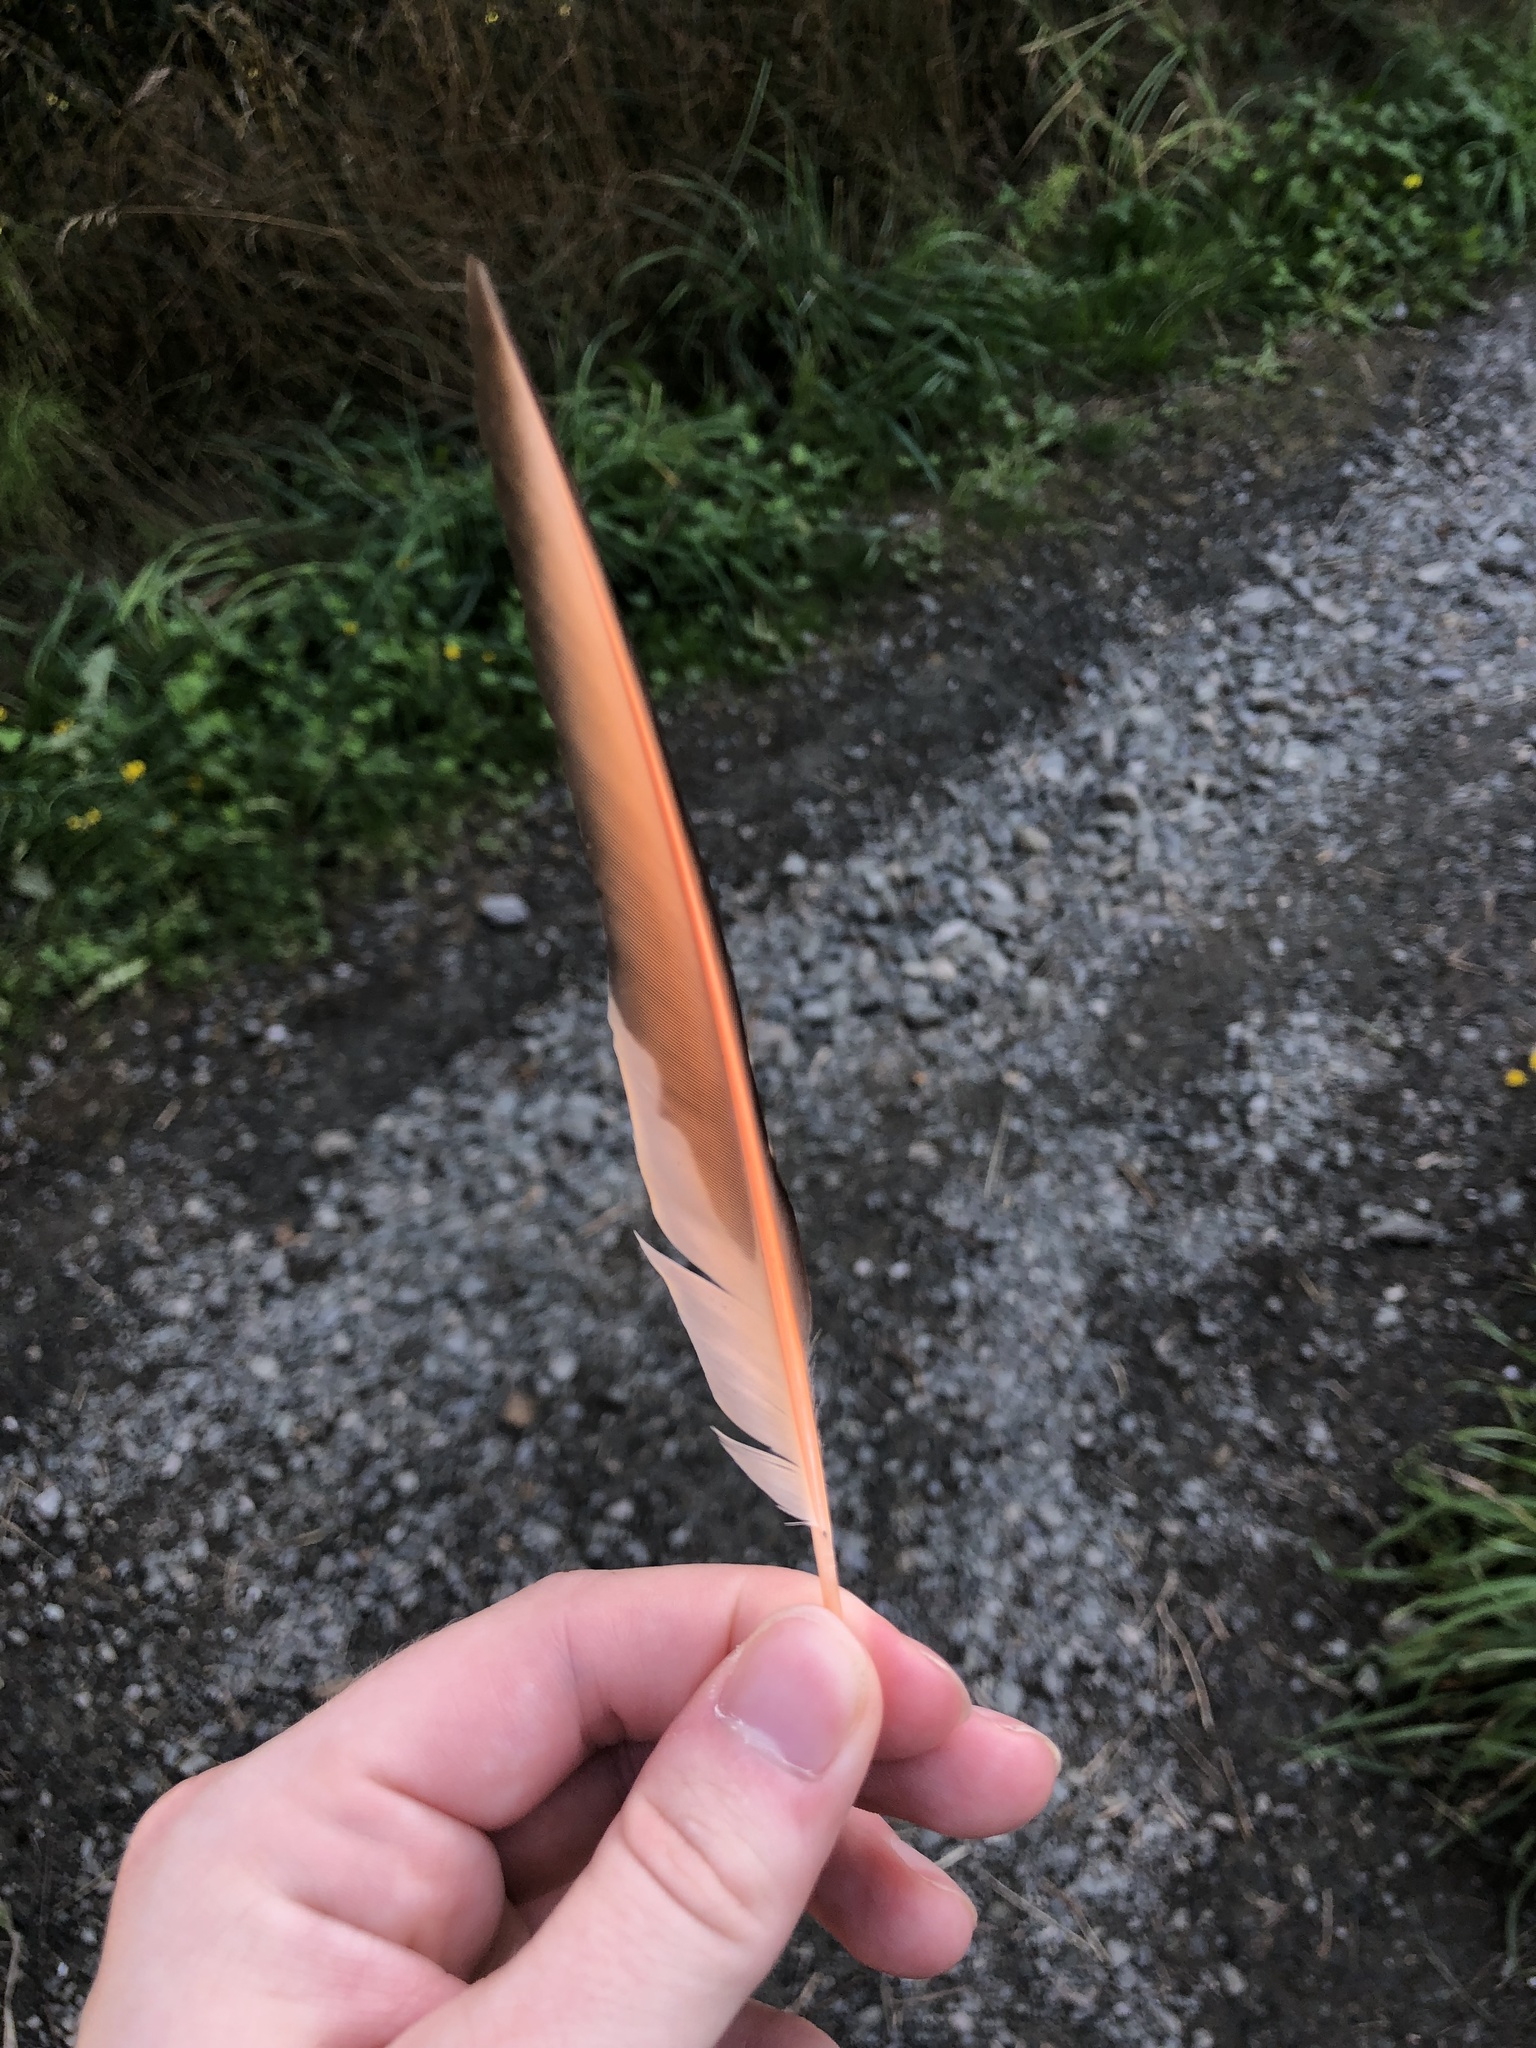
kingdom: Animalia
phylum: Chordata
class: Aves
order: Piciformes
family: Picidae
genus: Colaptes
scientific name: Colaptes auratus
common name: Northern flicker
